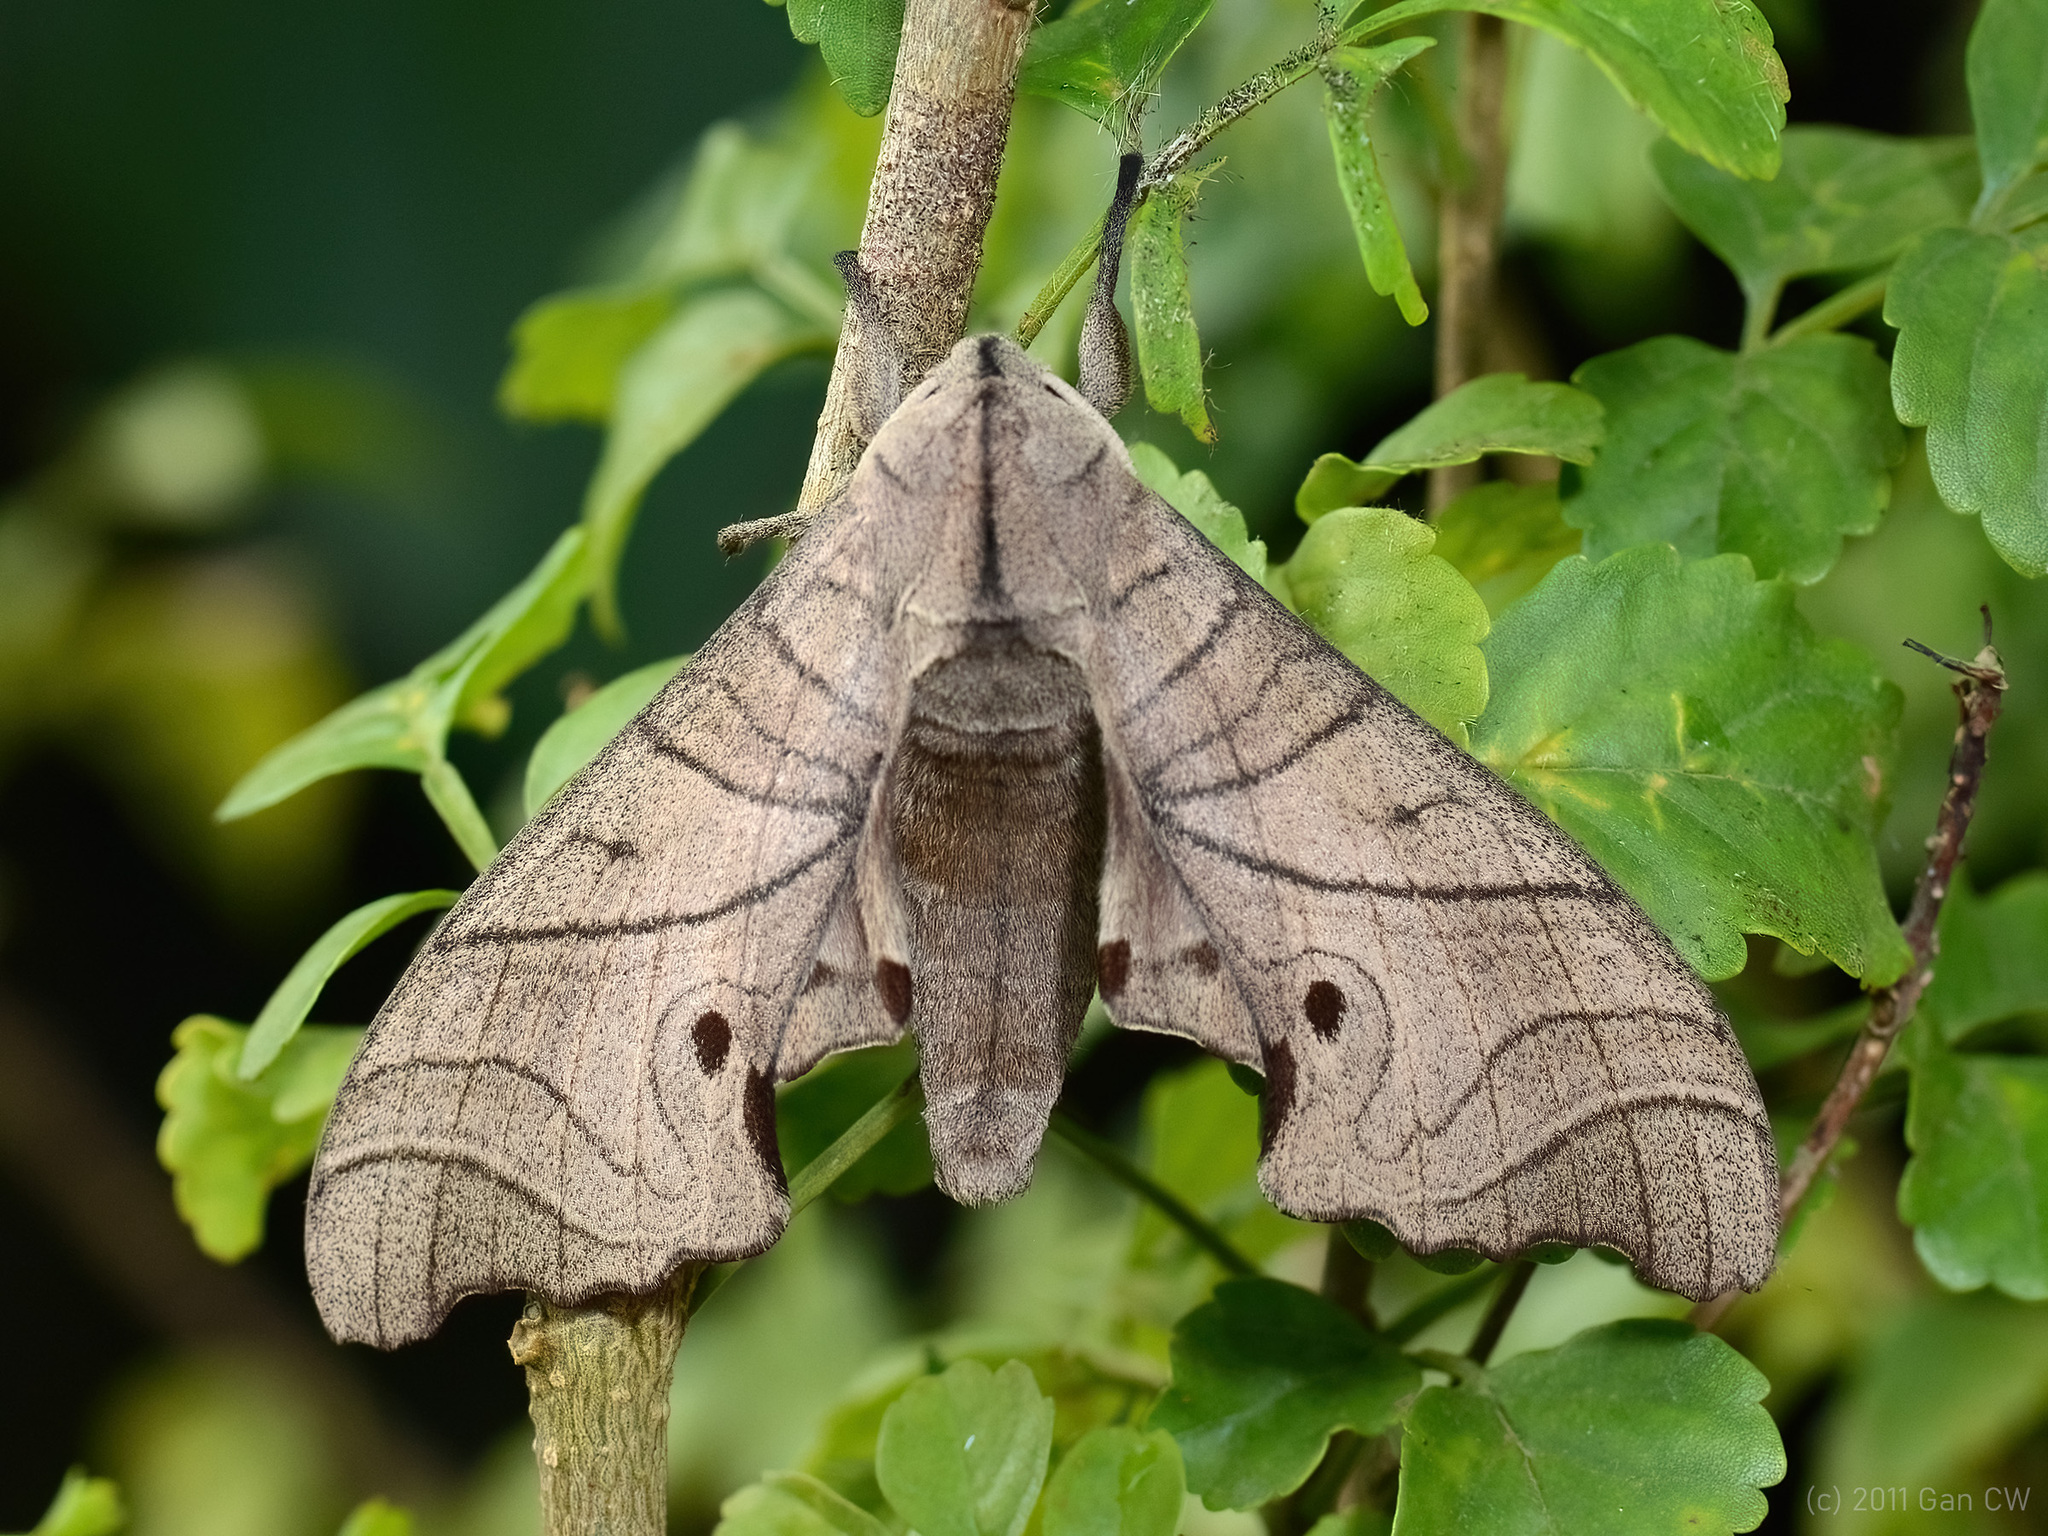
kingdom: Animalia
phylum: Arthropoda
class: Insecta
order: Lepidoptera
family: Sphingidae
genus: Marumba
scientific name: Marumba amboinicus
